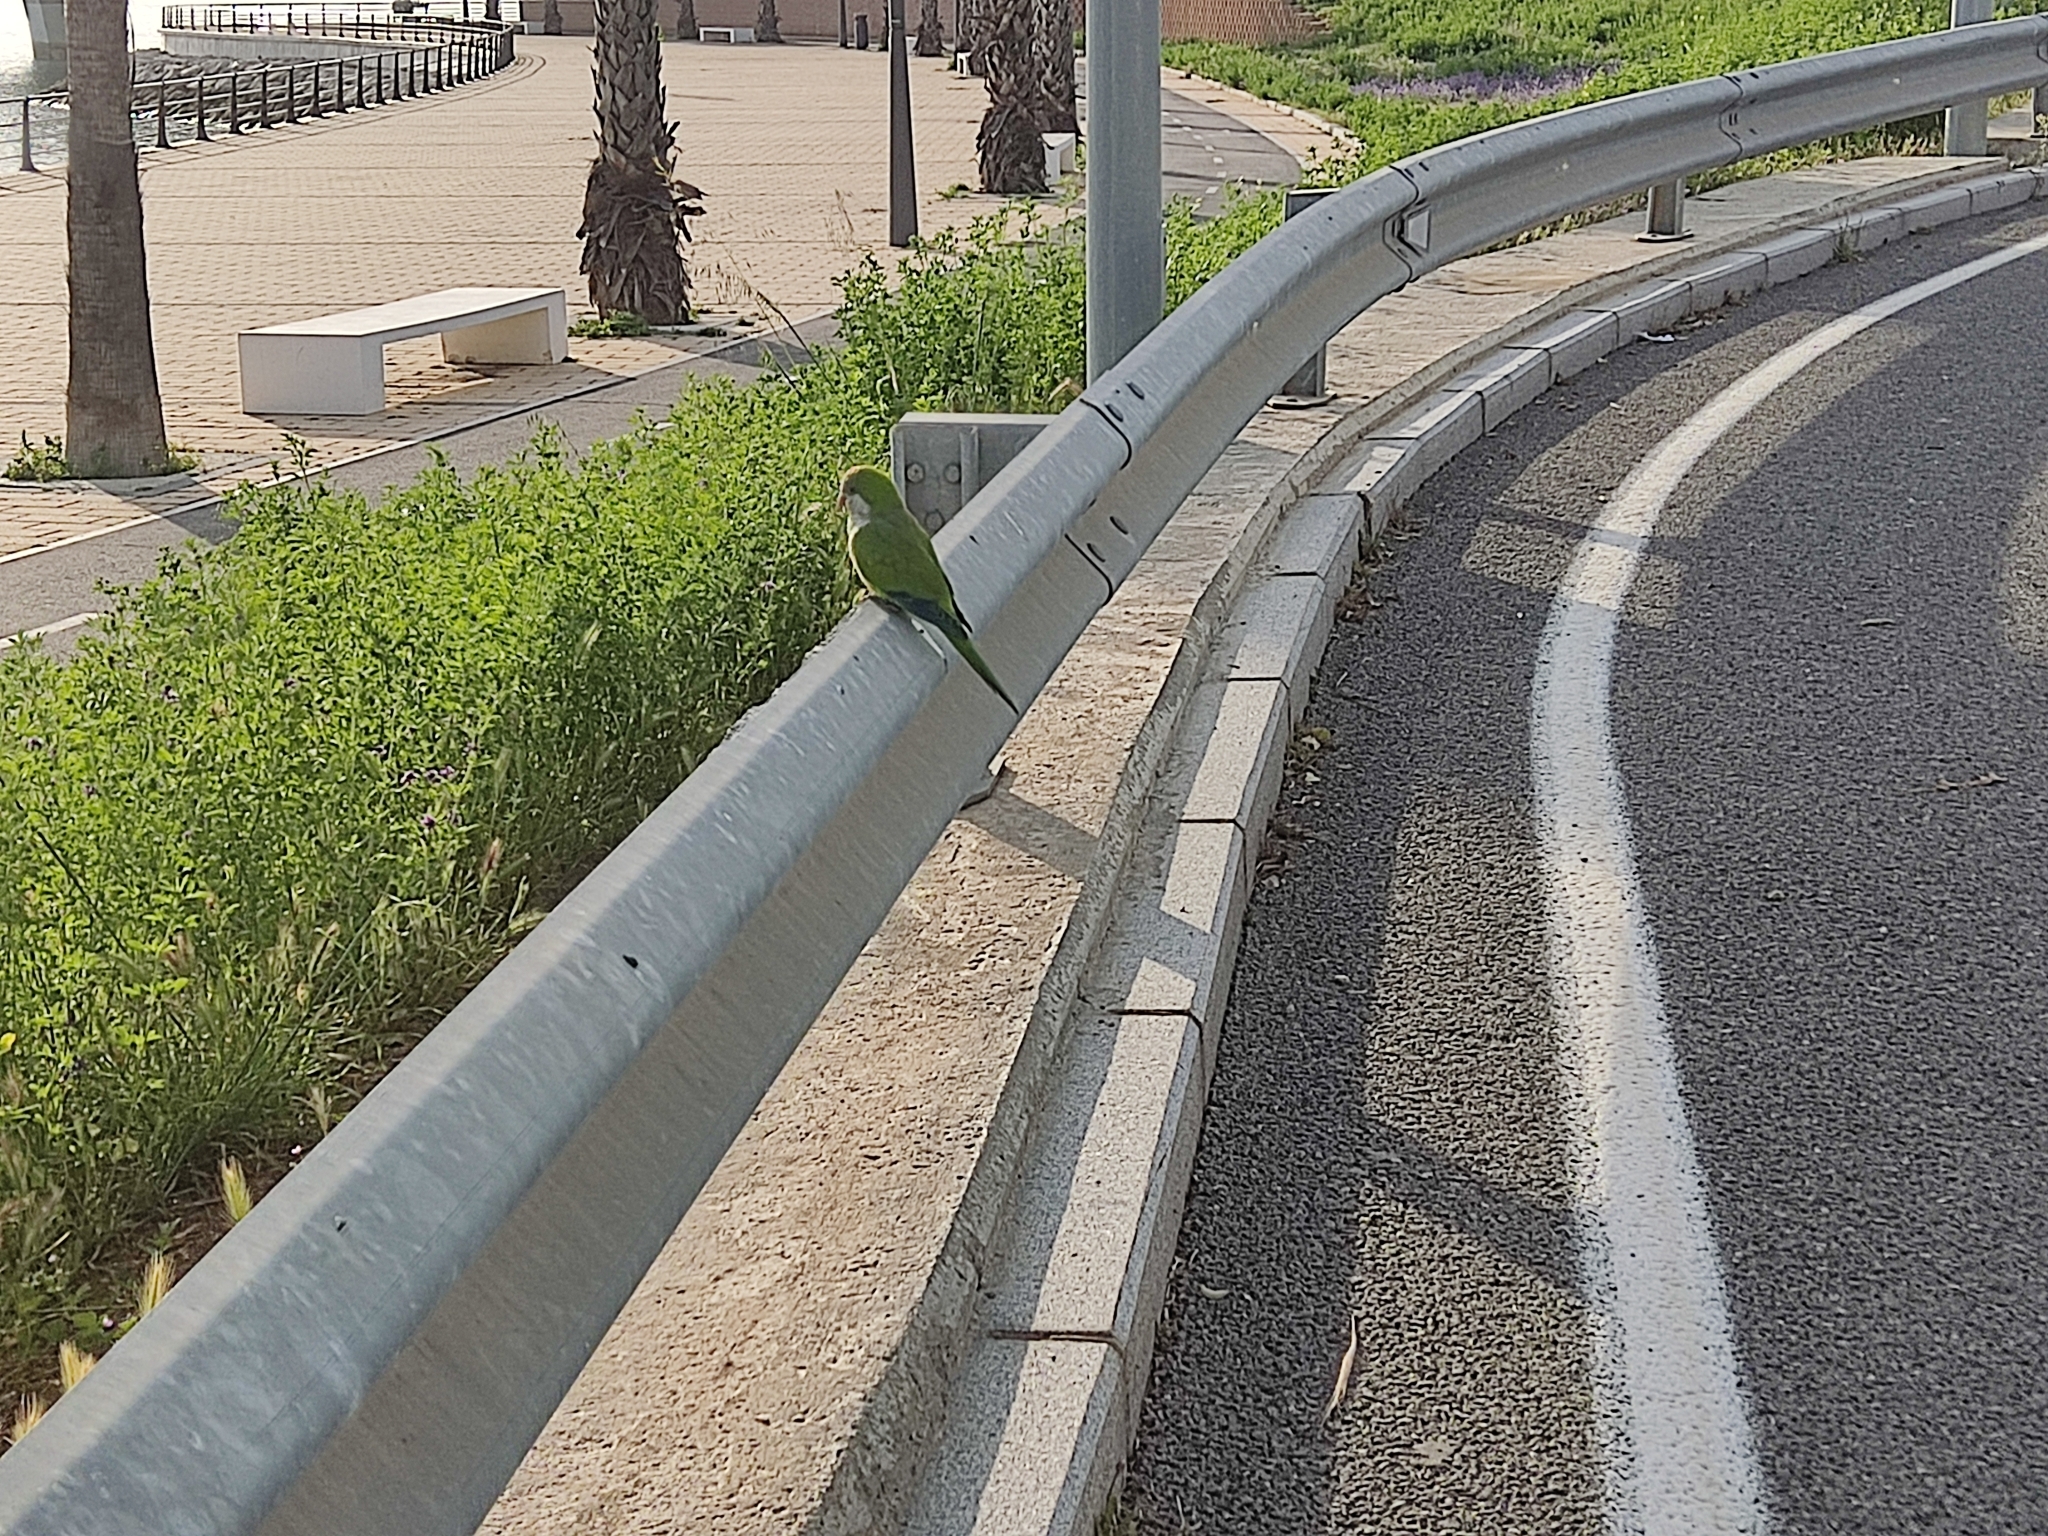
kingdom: Animalia
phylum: Chordata
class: Aves
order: Psittaciformes
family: Psittacidae
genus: Myiopsitta
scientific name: Myiopsitta monachus
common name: Monk parakeet
